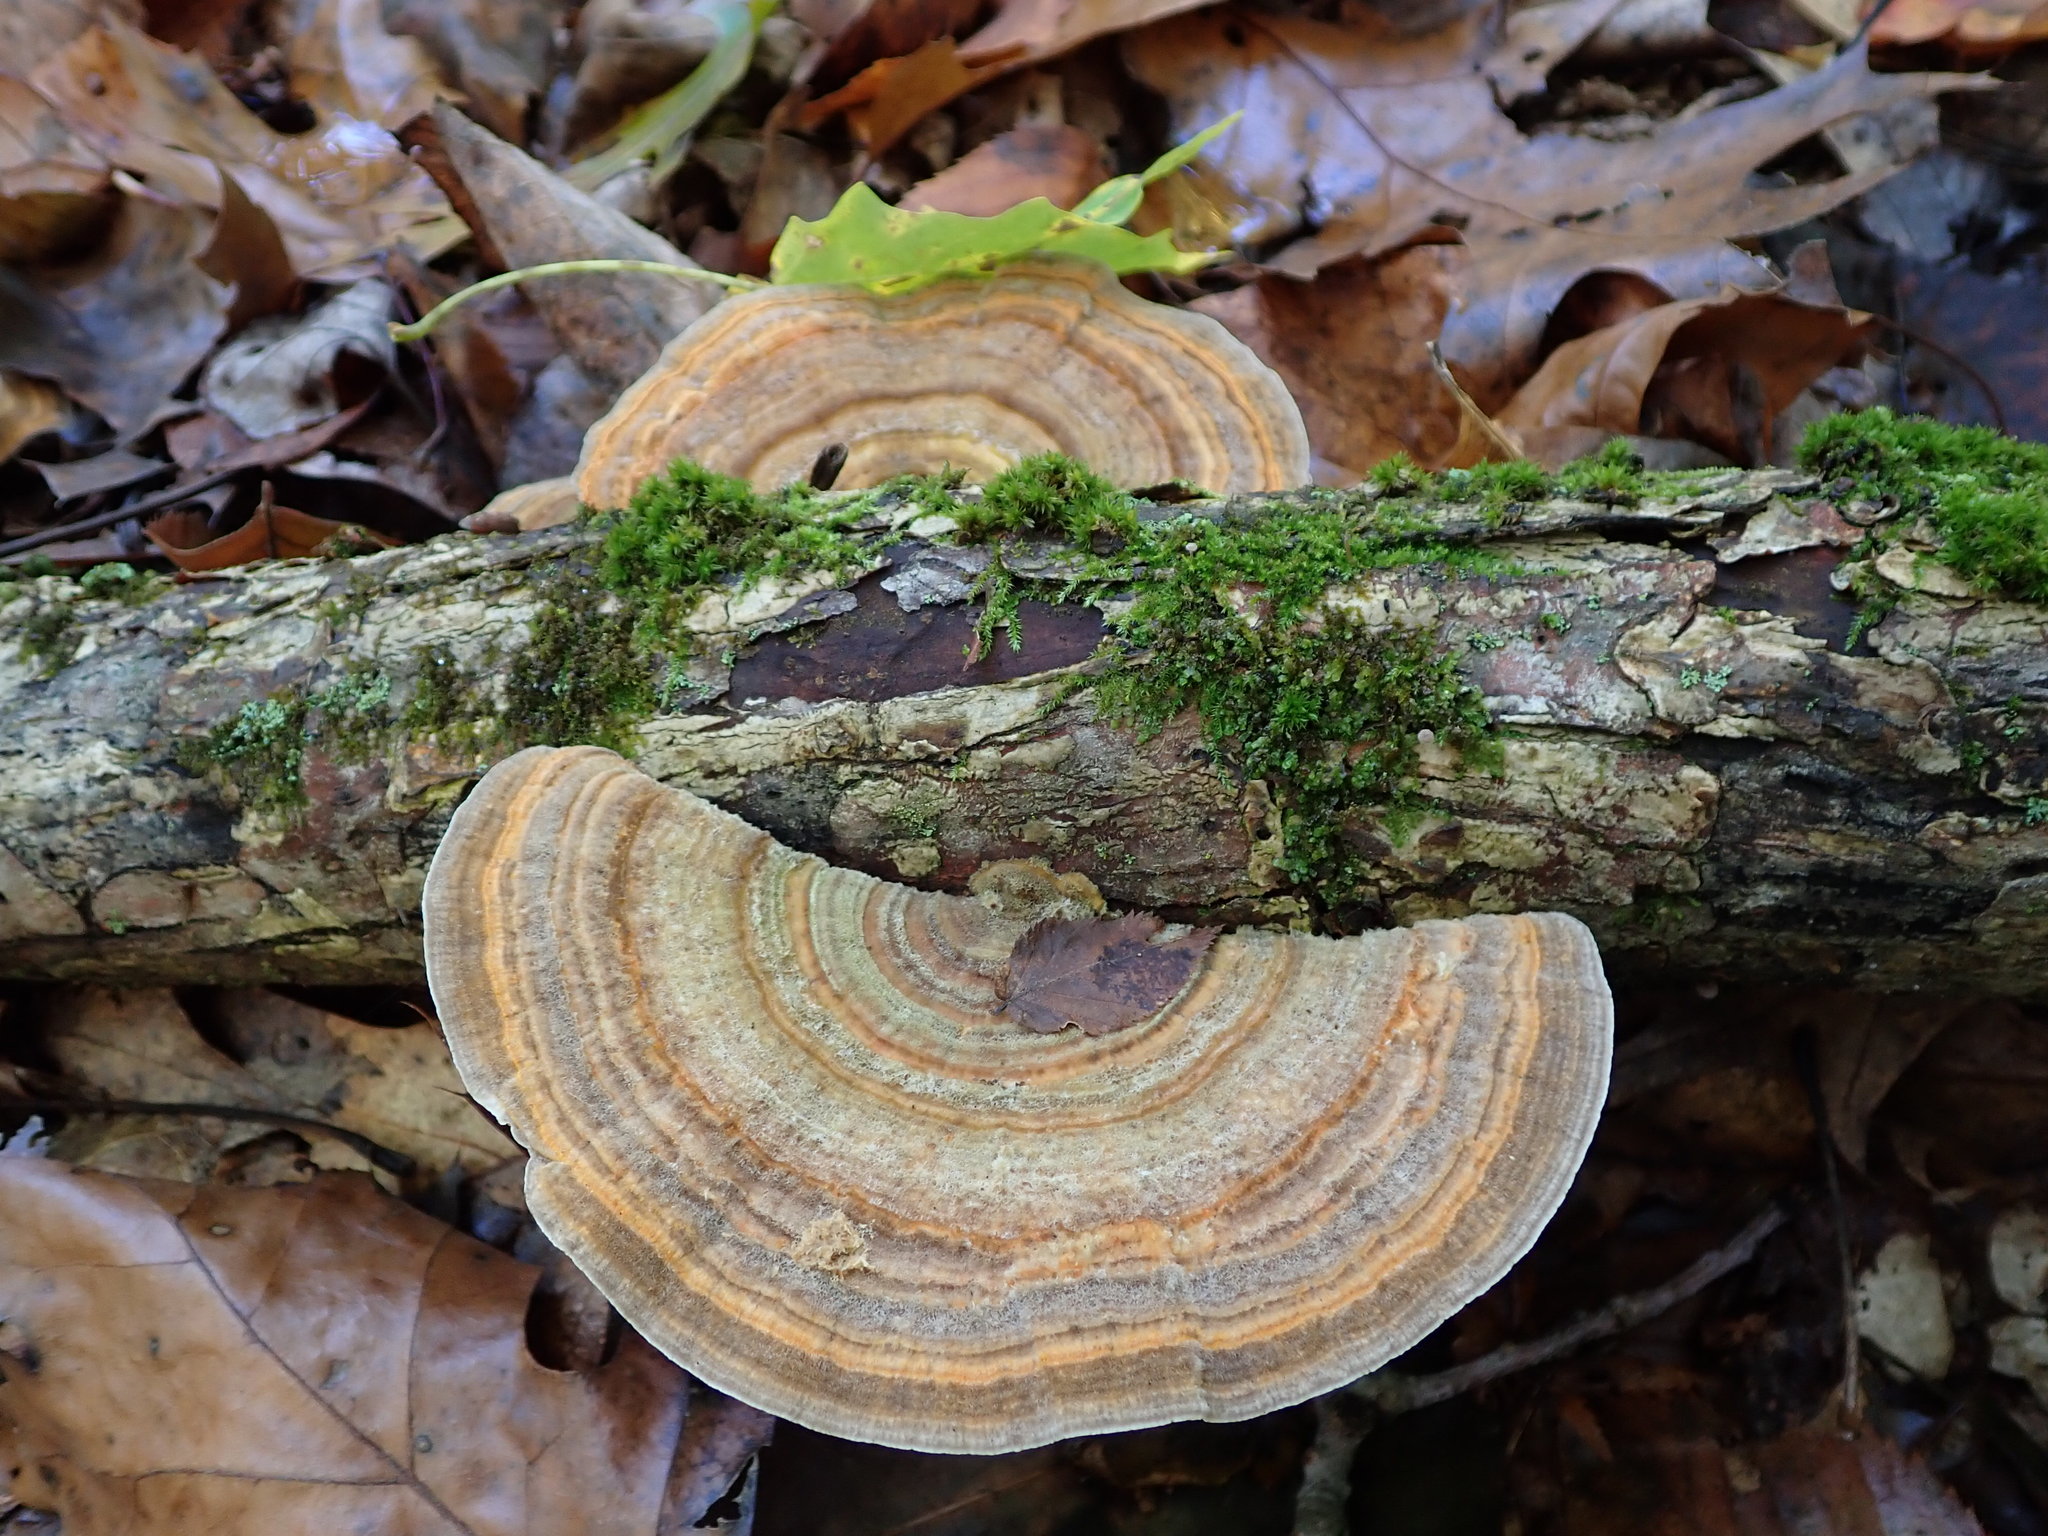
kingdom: Fungi
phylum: Basidiomycota
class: Agaricomycetes
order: Polyporales
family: Polyporaceae
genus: Lenzites
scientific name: Lenzites betulinus
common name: Birch mazegill
